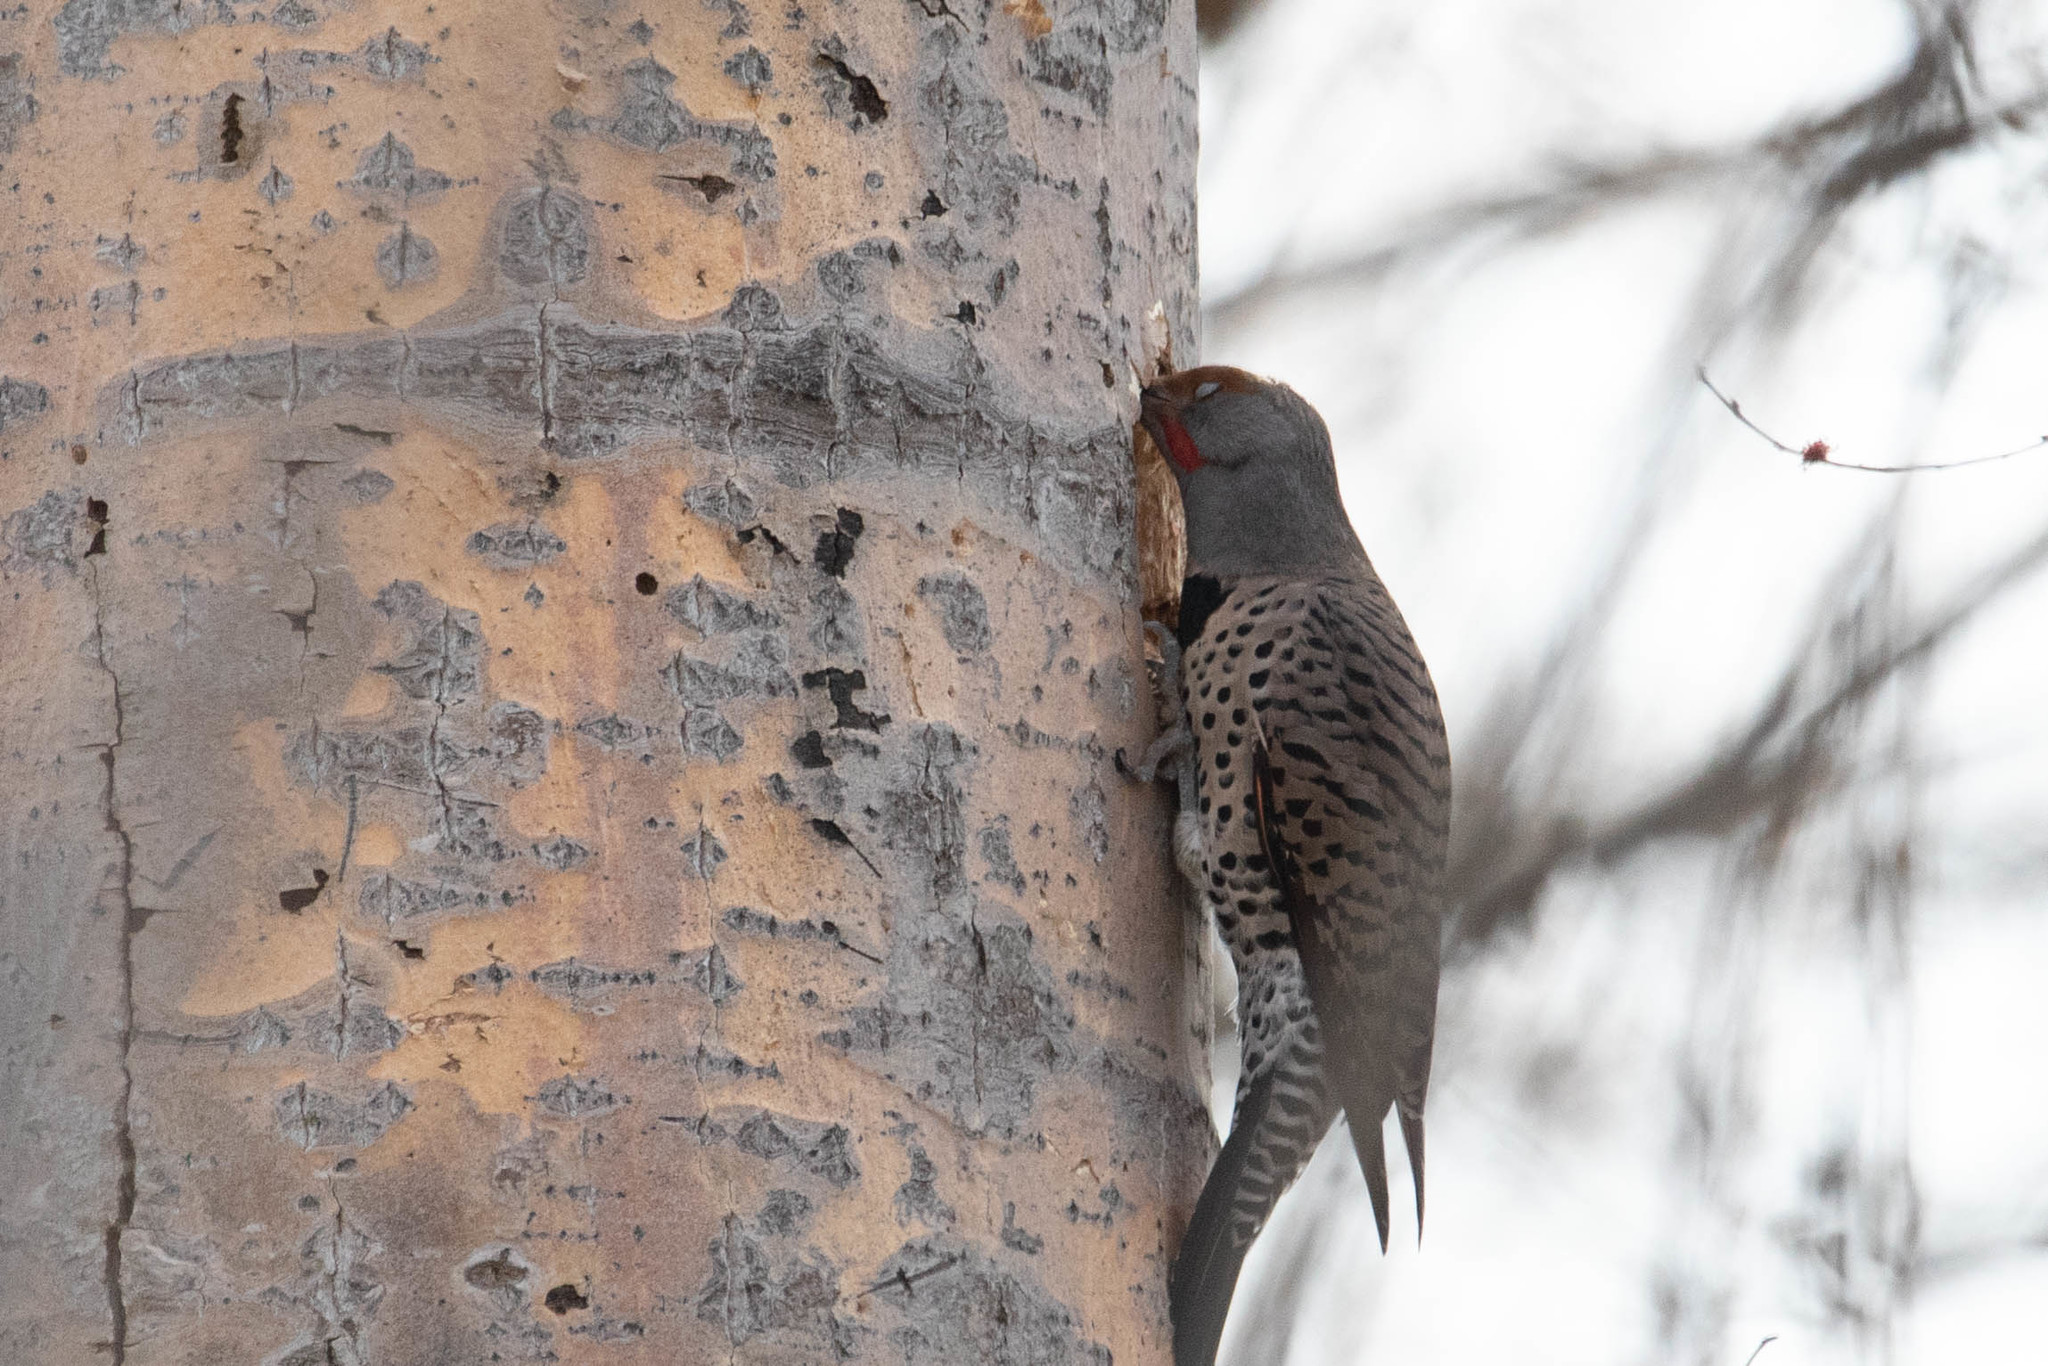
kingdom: Animalia
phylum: Chordata
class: Aves
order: Piciformes
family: Picidae
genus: Colaptes
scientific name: Colaptes auratus
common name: Northern flicker
